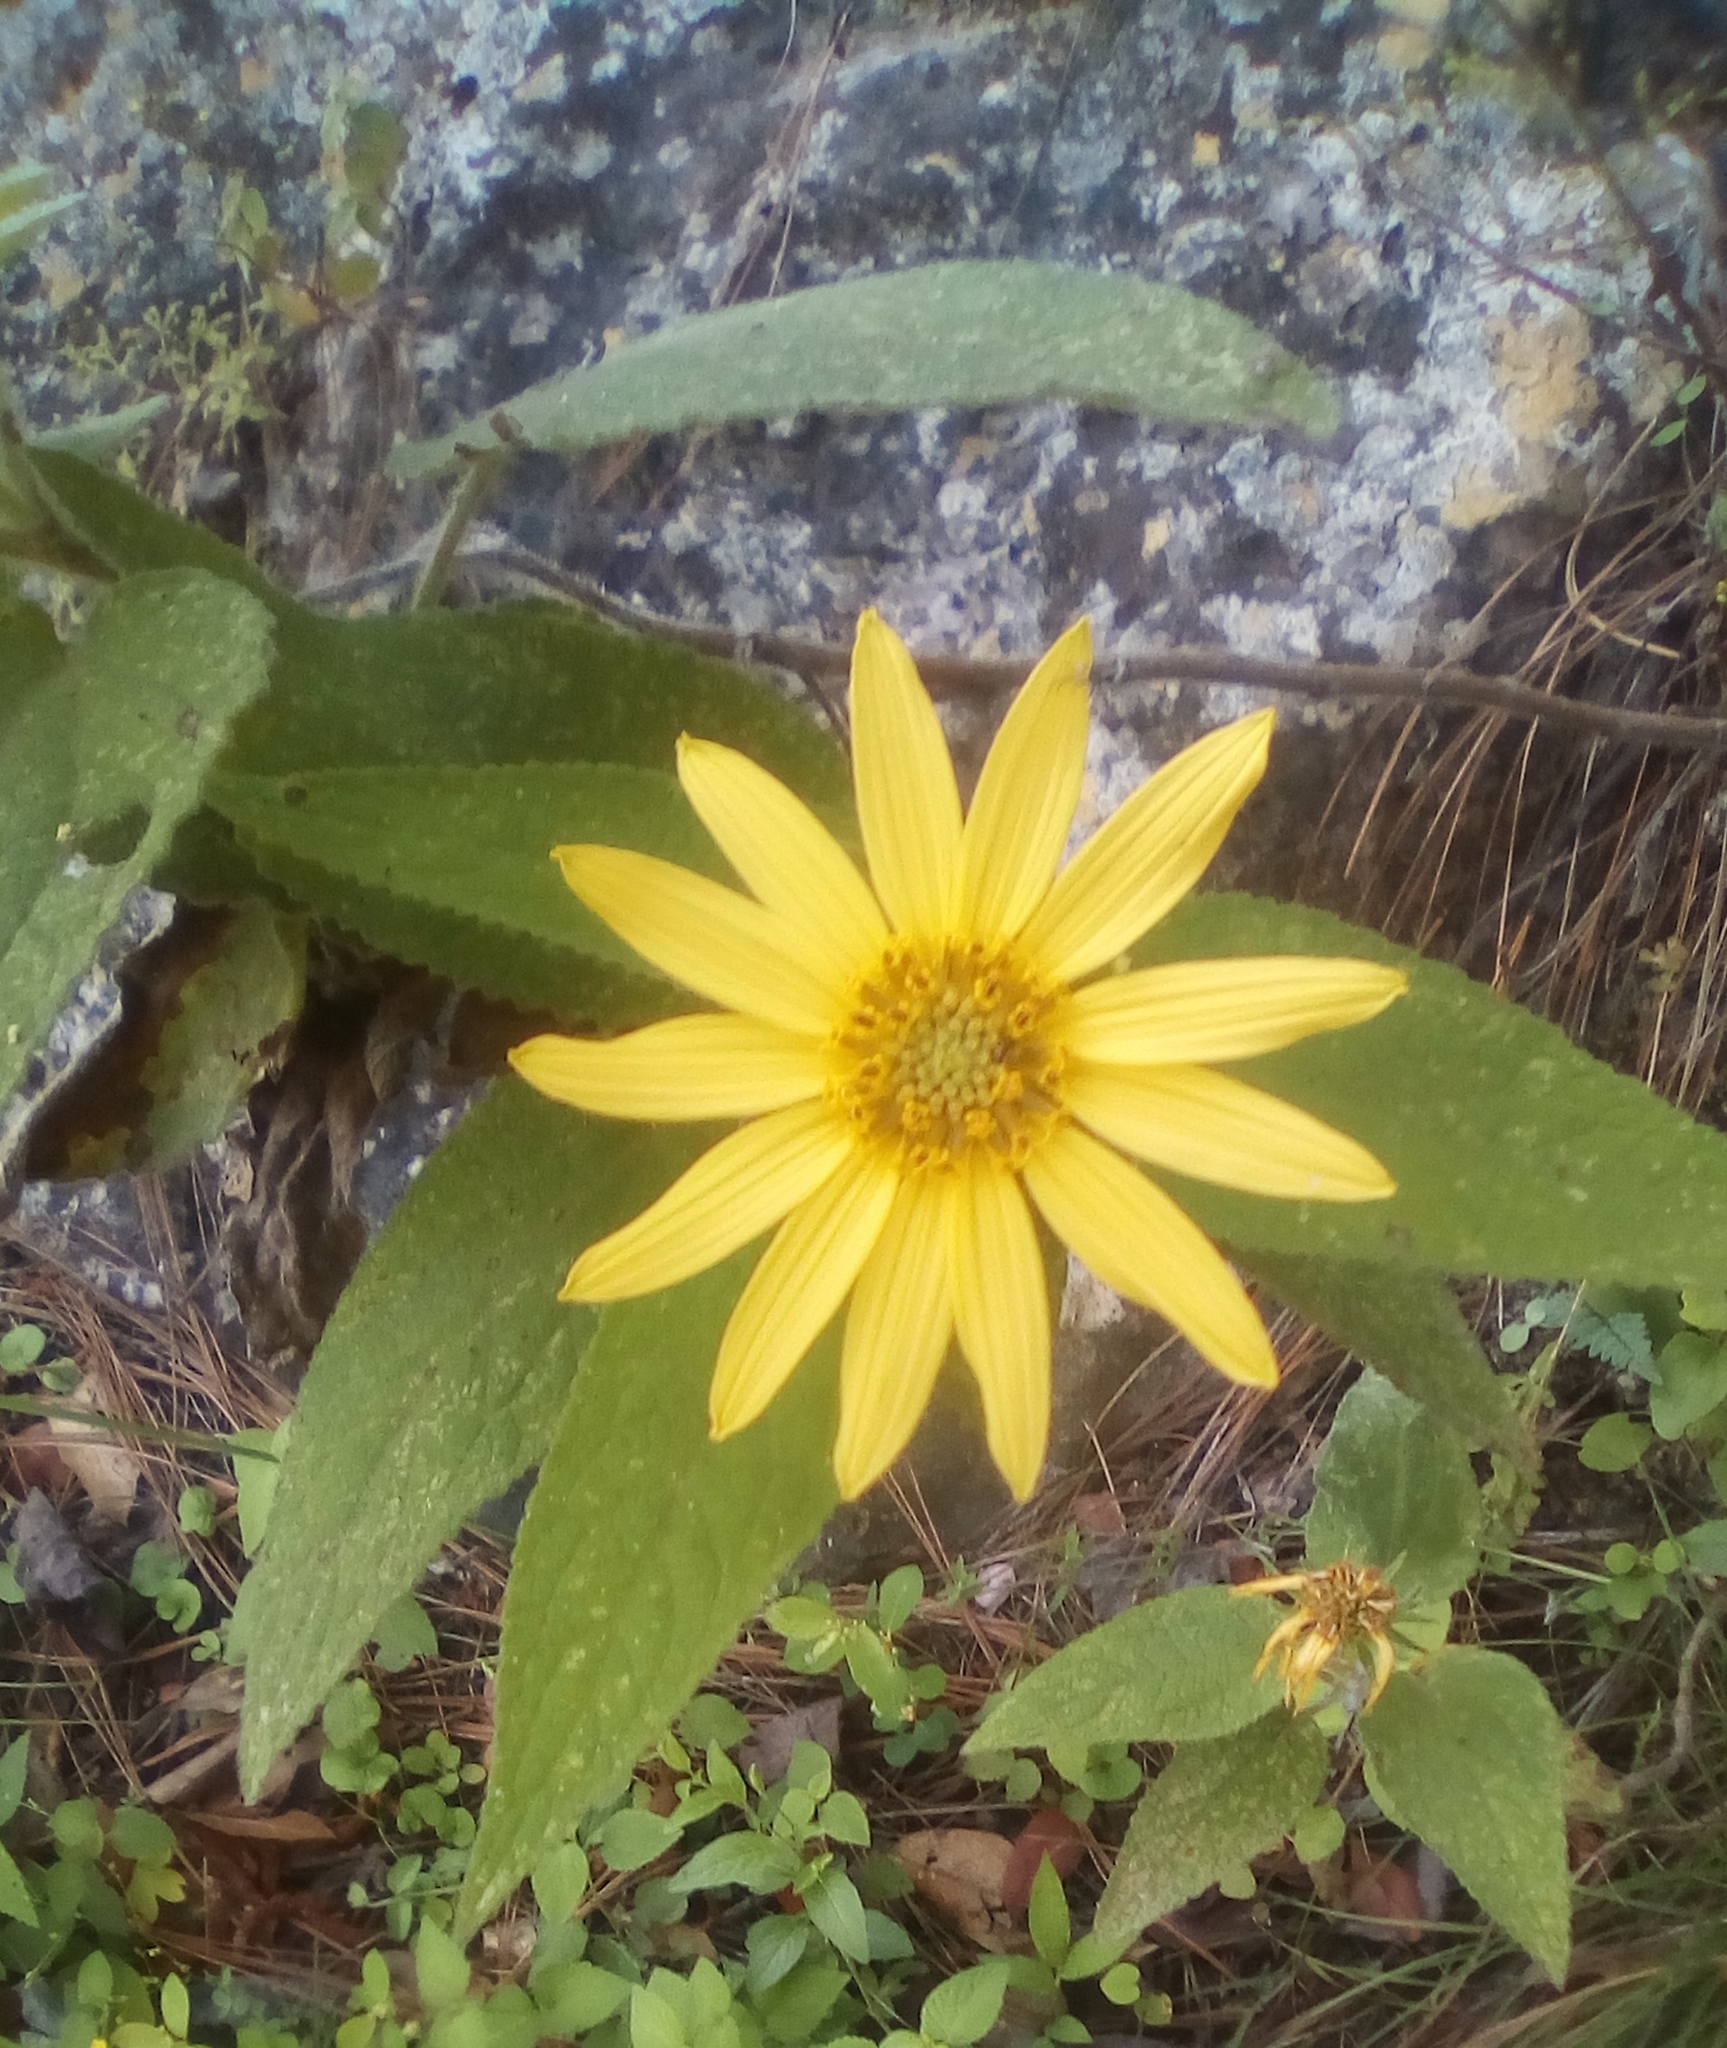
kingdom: Plantae
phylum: Tracheophyta
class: Magnoliopsida
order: Asterales
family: Asteraceae
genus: Vigethia
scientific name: Vigethia mexicana
